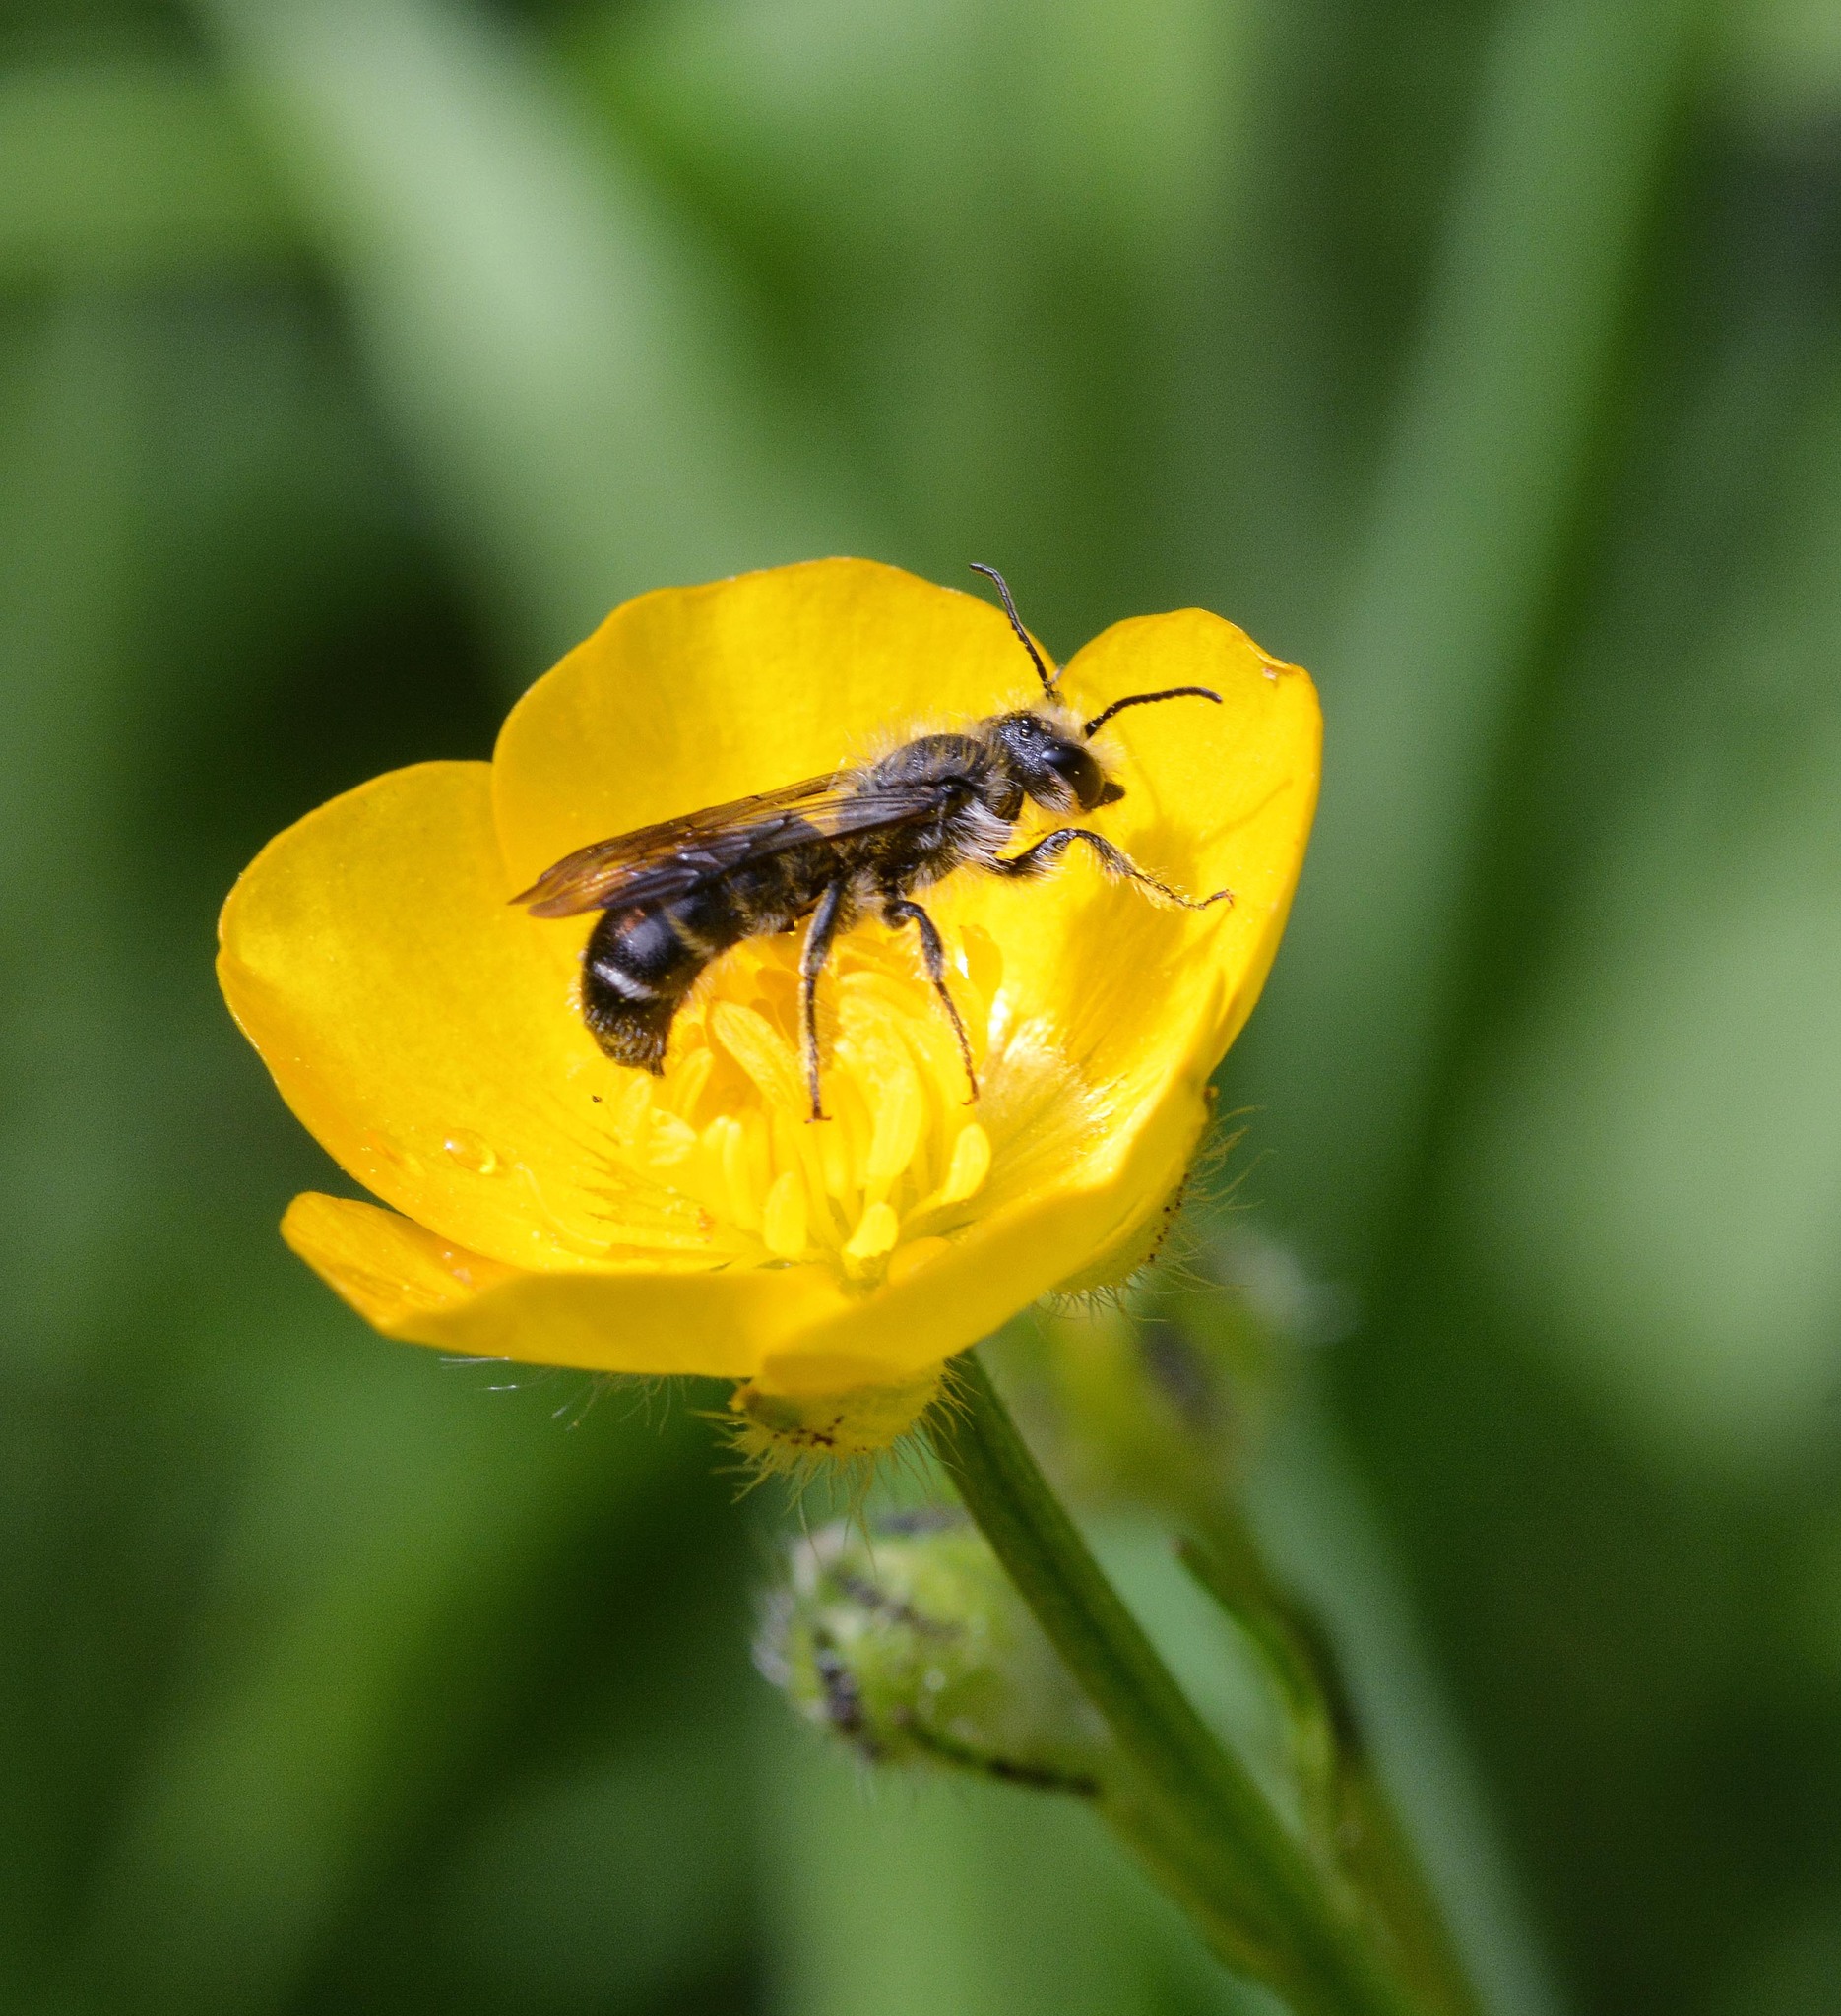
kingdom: Animalia
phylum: Arthropoda
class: Insecta
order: Hymenoptera
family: Megachilidae
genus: Chelostoma
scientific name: Chelostoma florisomne
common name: Sleepy carpenter bee
